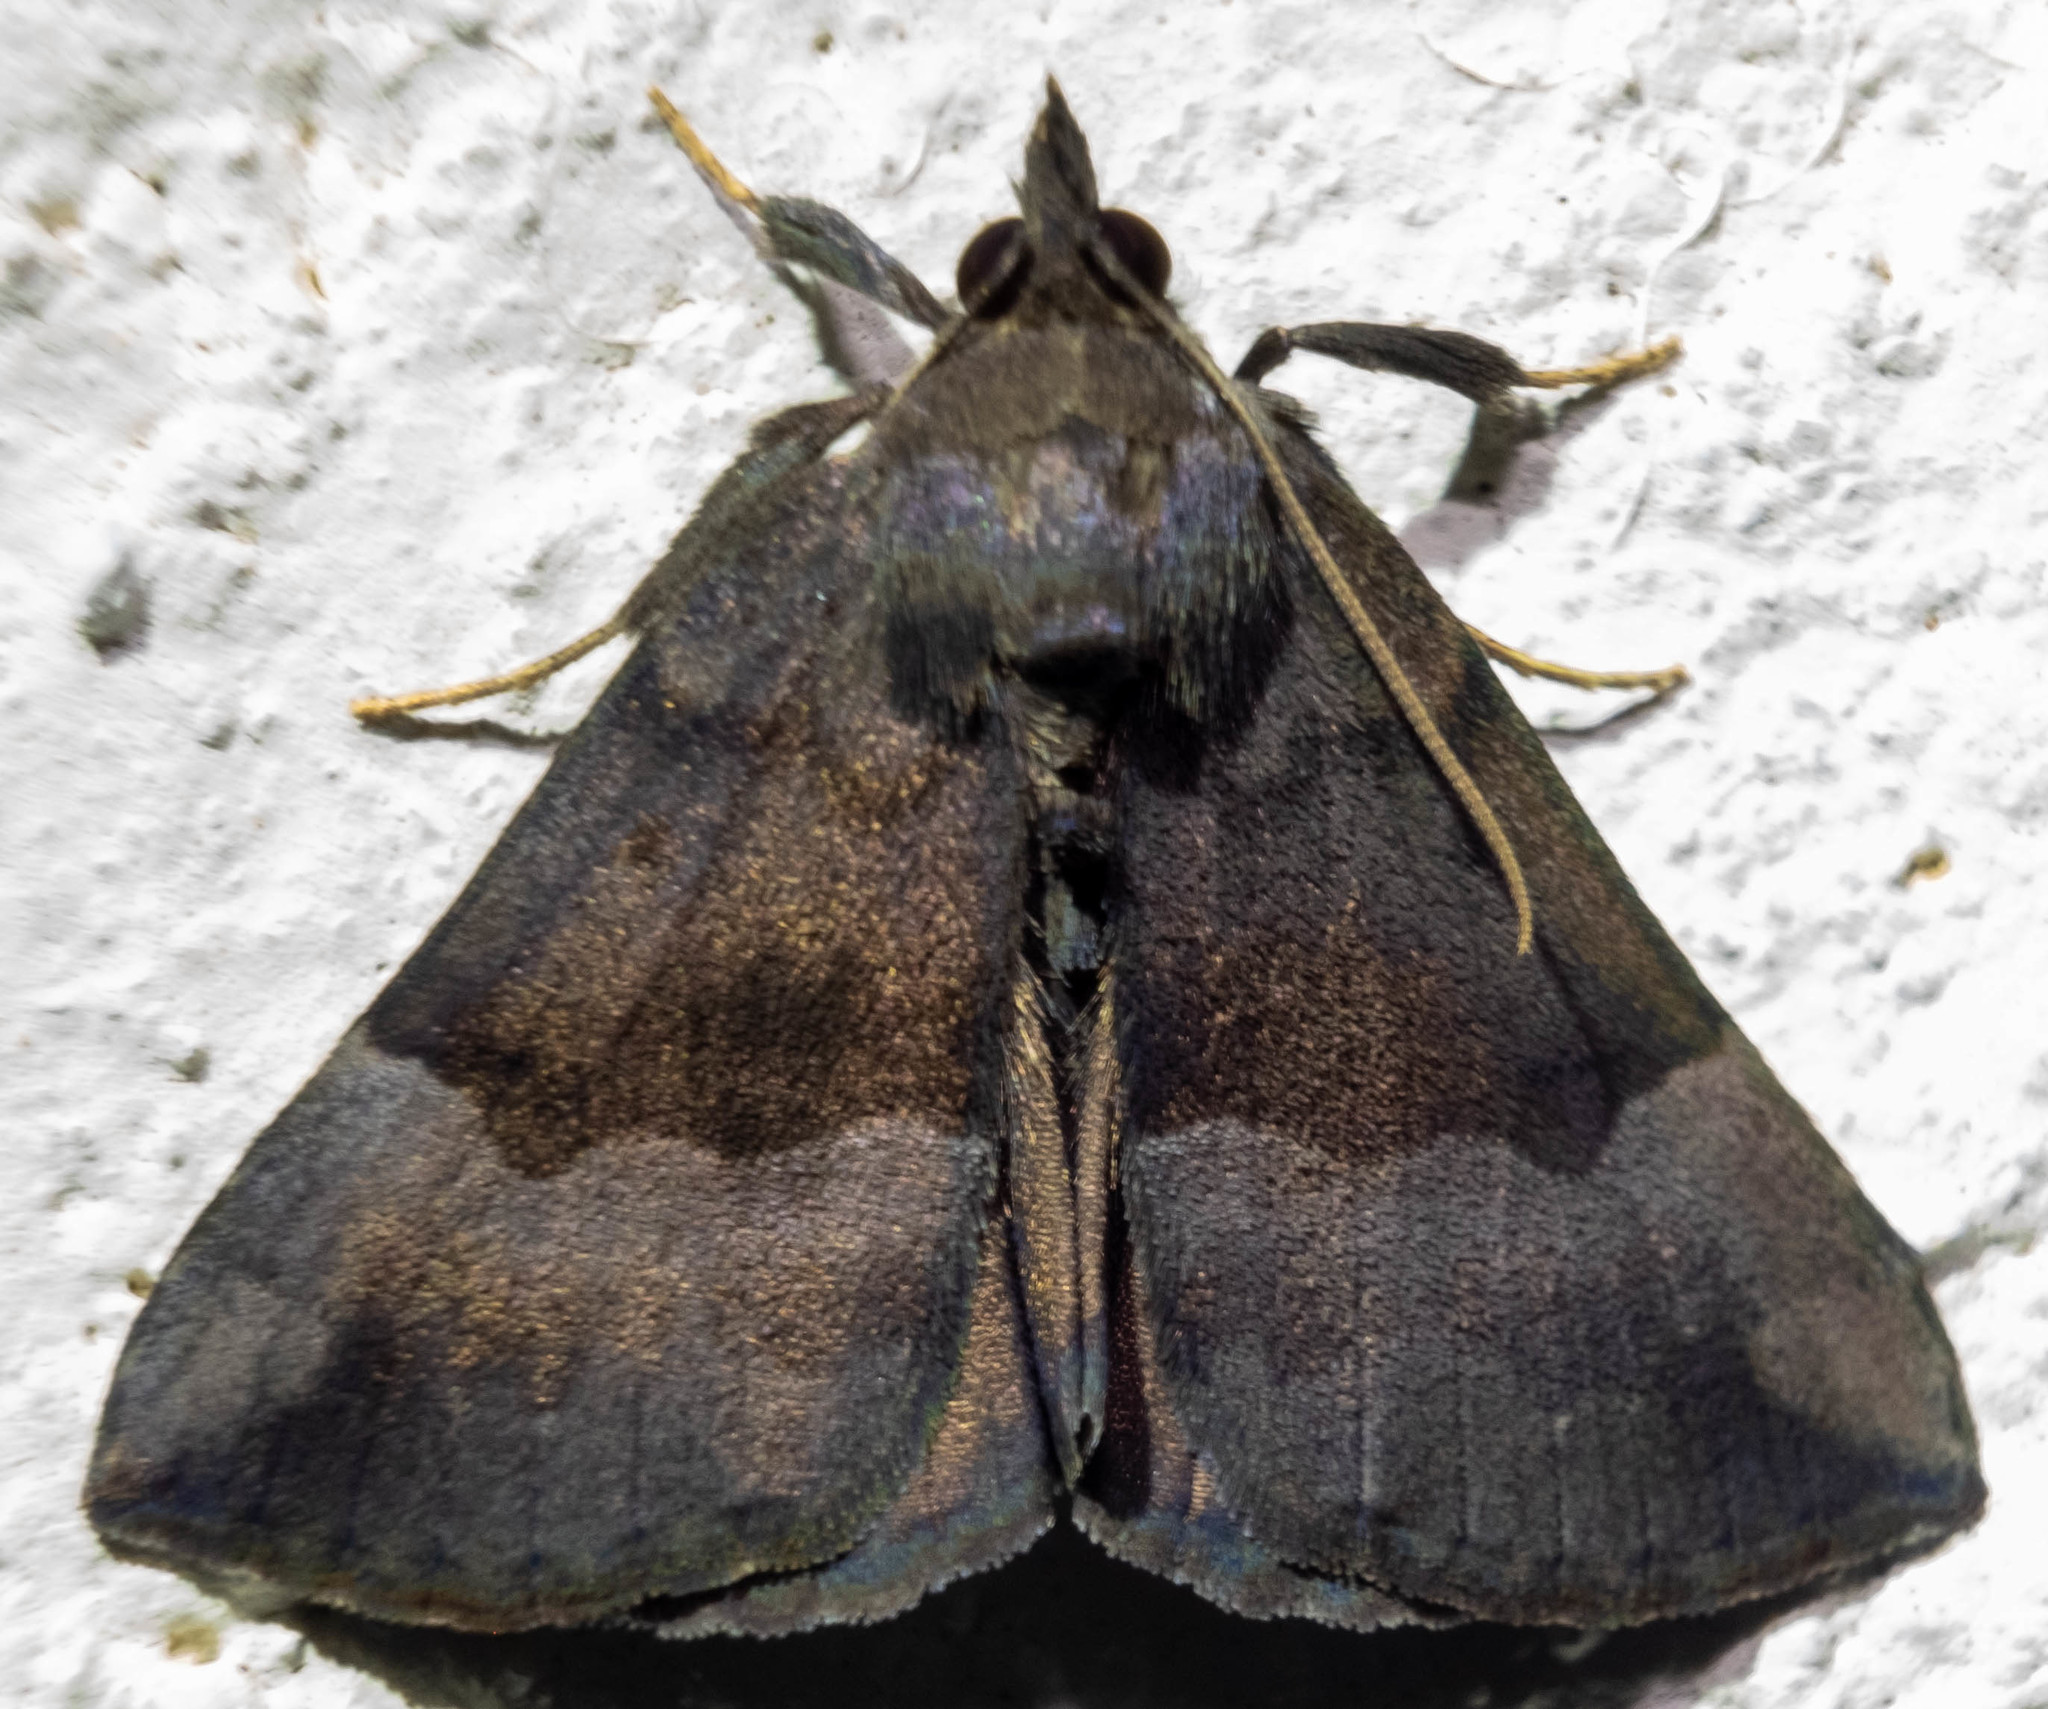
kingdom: Animalia
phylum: Arthropoda
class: Insecta
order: Lepidoptera
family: Erebidae
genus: Hypena
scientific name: Hypena madefactalis
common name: Gray-edged snout
